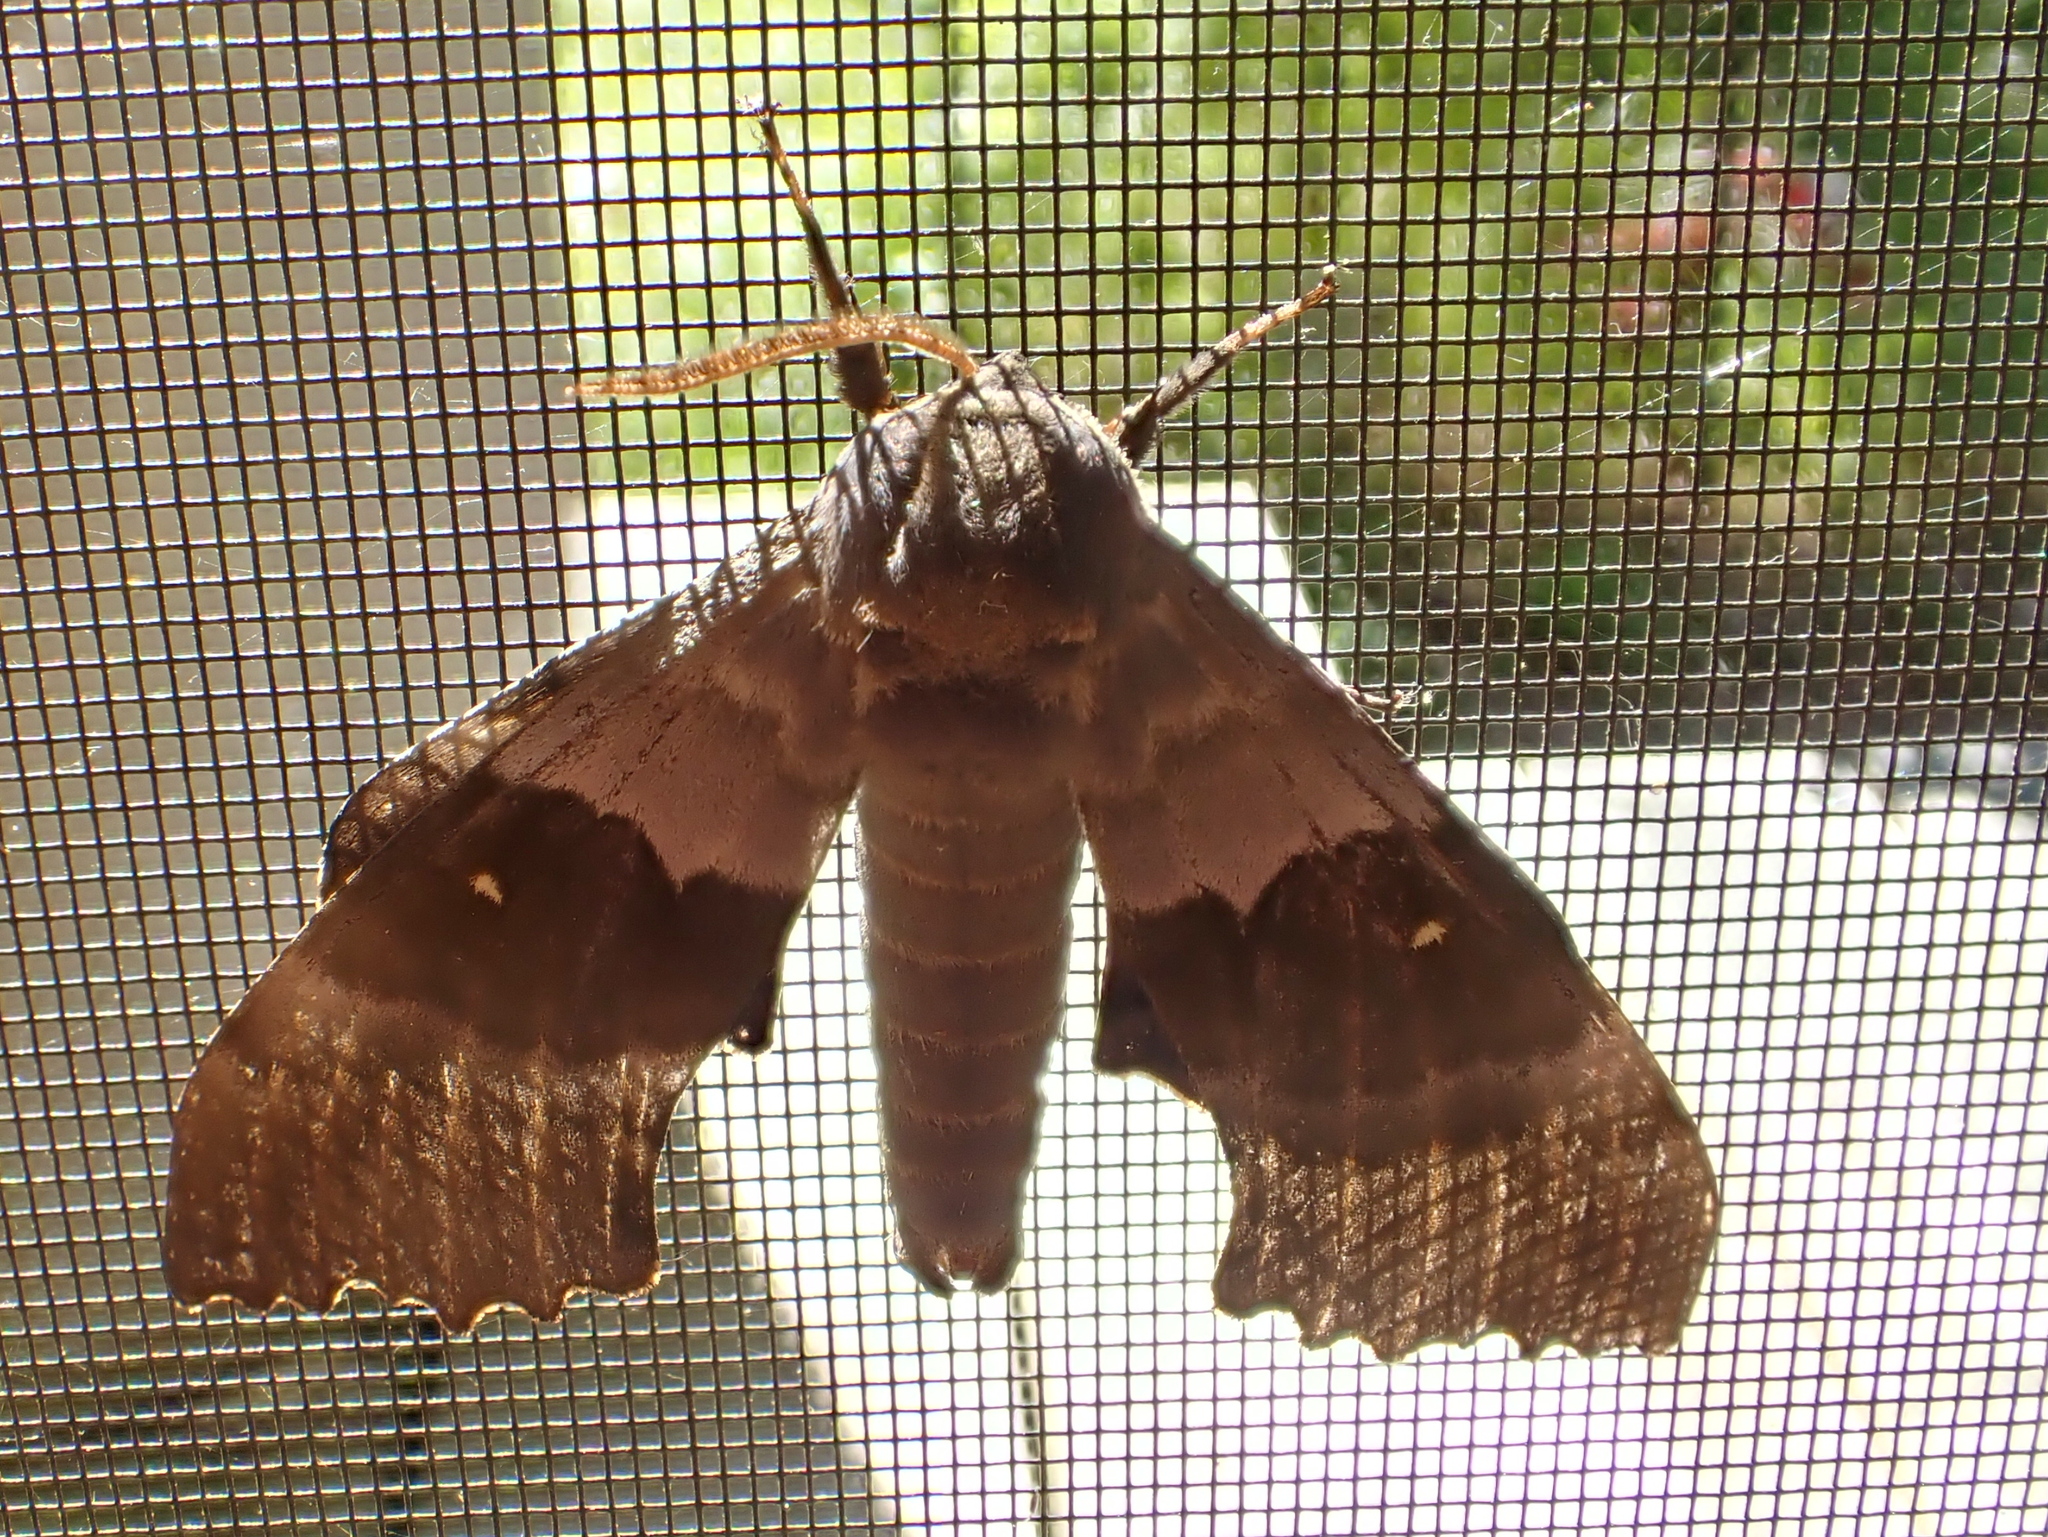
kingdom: Animalia
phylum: Arthropoda
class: Insecta
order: Lepidoptera
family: Sphingidae
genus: Pachysphinx
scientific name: Pachysphinx modesta
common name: Big poplar sphinx
